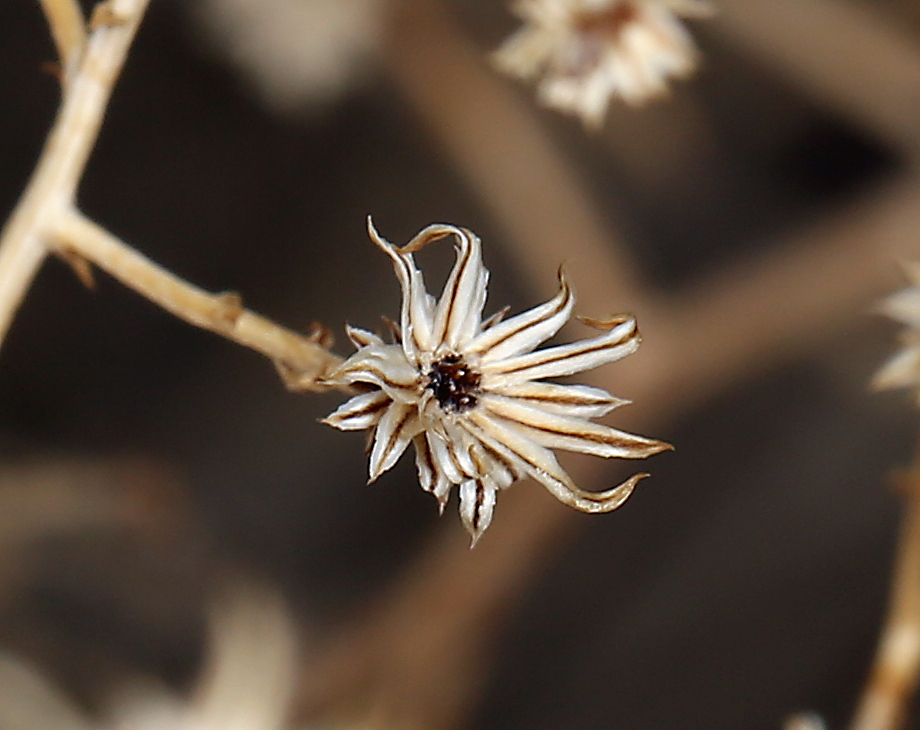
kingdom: Plantae
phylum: Tracheophyta
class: Magnoliopsida
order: Asterales
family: Asteraceae
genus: Leucosyris
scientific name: Leucosyris carnosa
